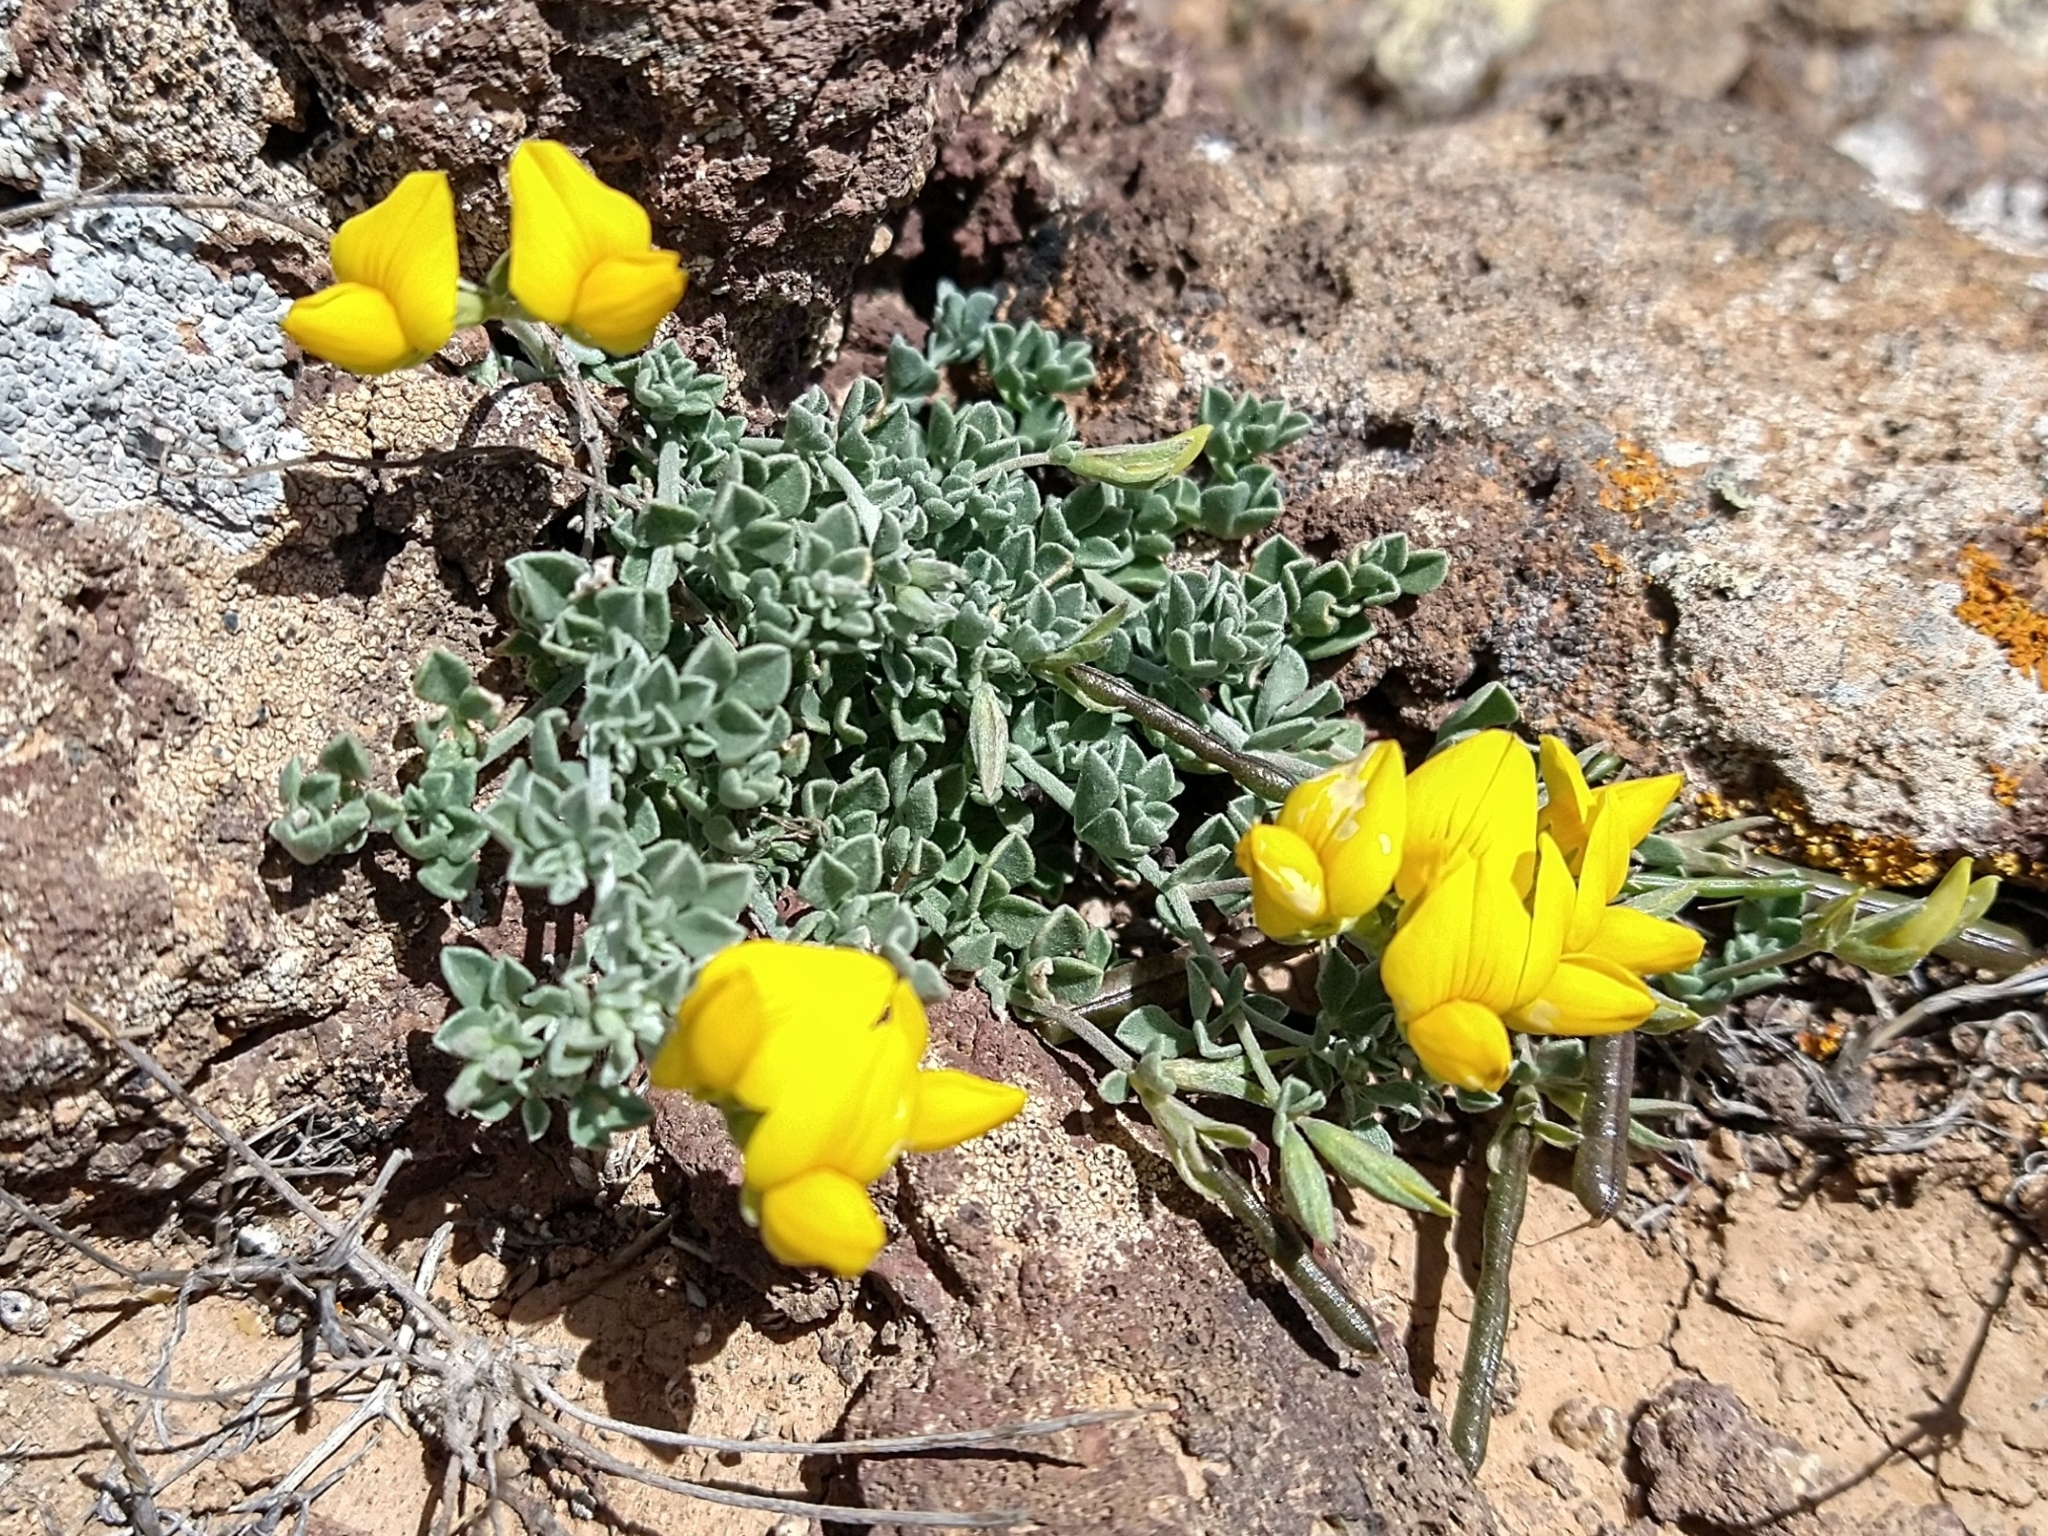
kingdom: Plantae
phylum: Tracheophyta
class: Magnoliopsida
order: Fabales
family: Fabaceae
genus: Lotus
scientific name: Lotus lancerottensis
